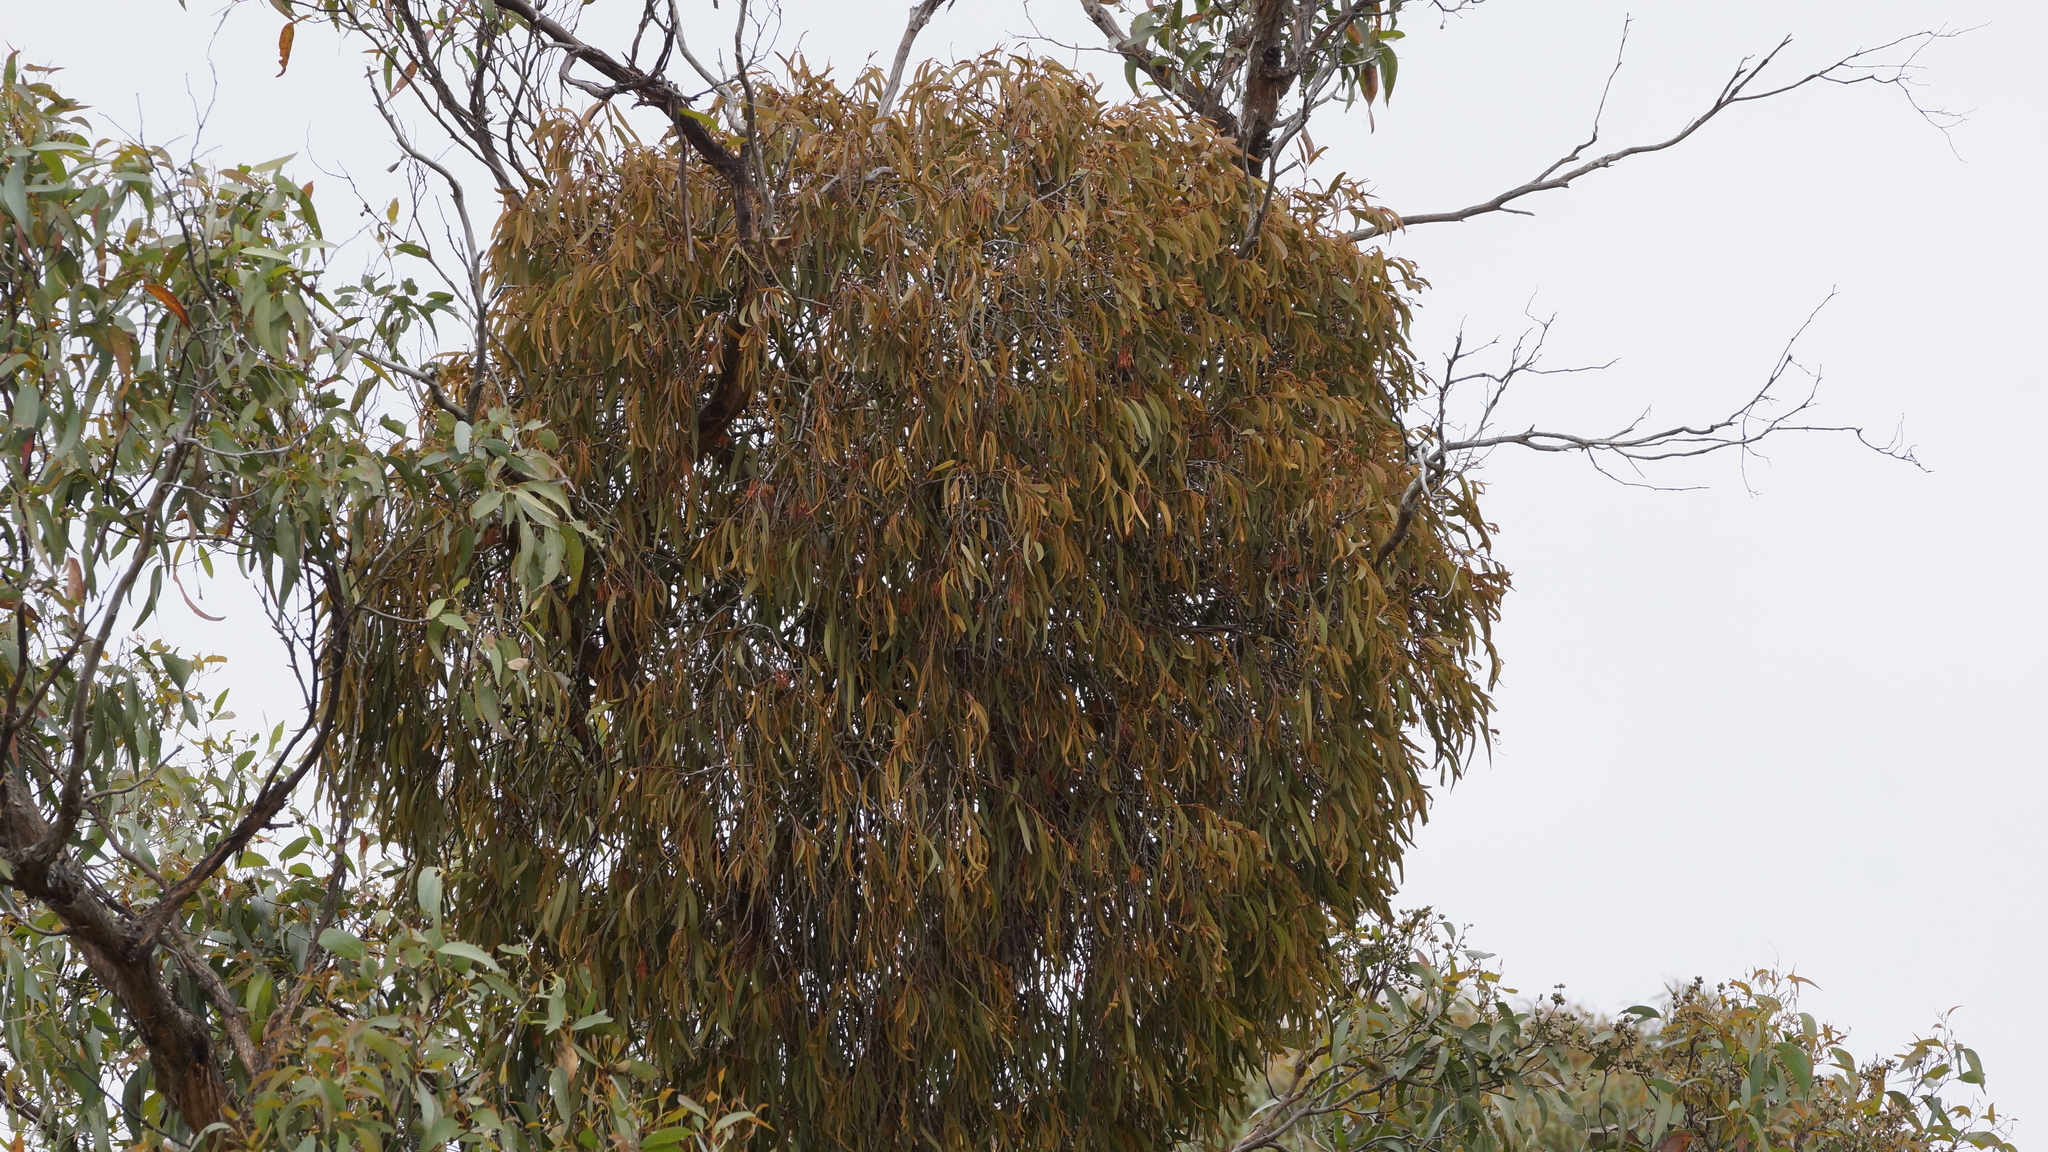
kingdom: Plantae
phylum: Tracheophyta
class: Magnoliopsida
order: Santalales
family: Loranthaceae
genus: Amyema
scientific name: Amyema pendula
